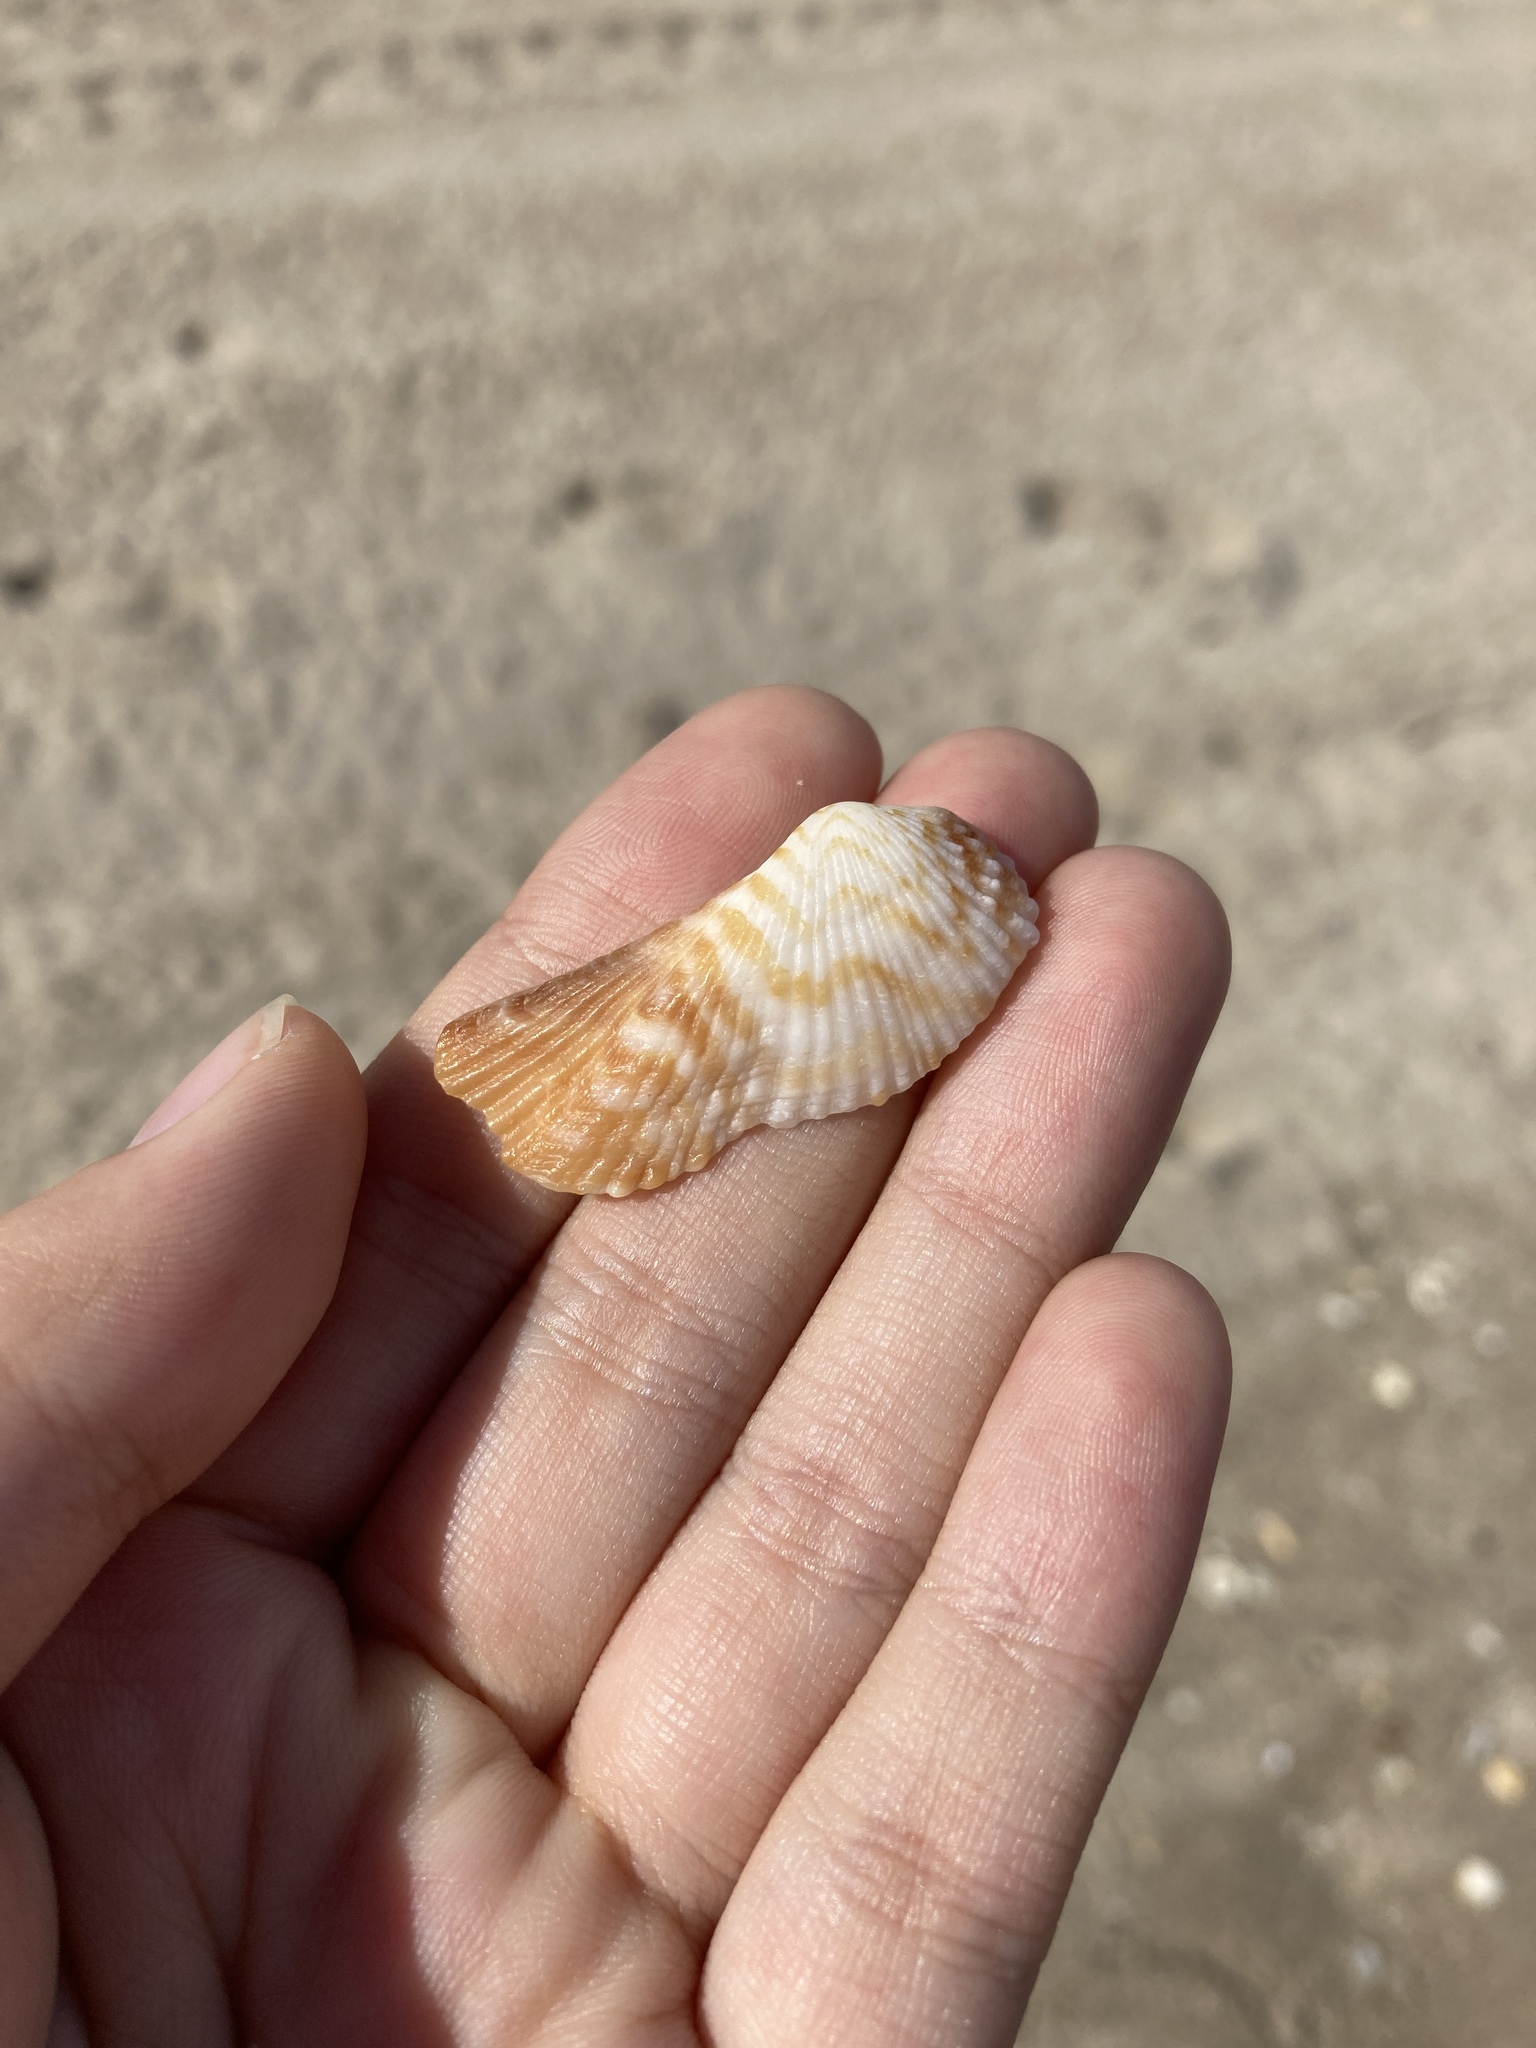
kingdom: Animalia
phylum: Mollusca
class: Bivalvia
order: Arcida
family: Arcidae
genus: Arca
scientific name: Arca zebra
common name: Atlantic turkey wing
